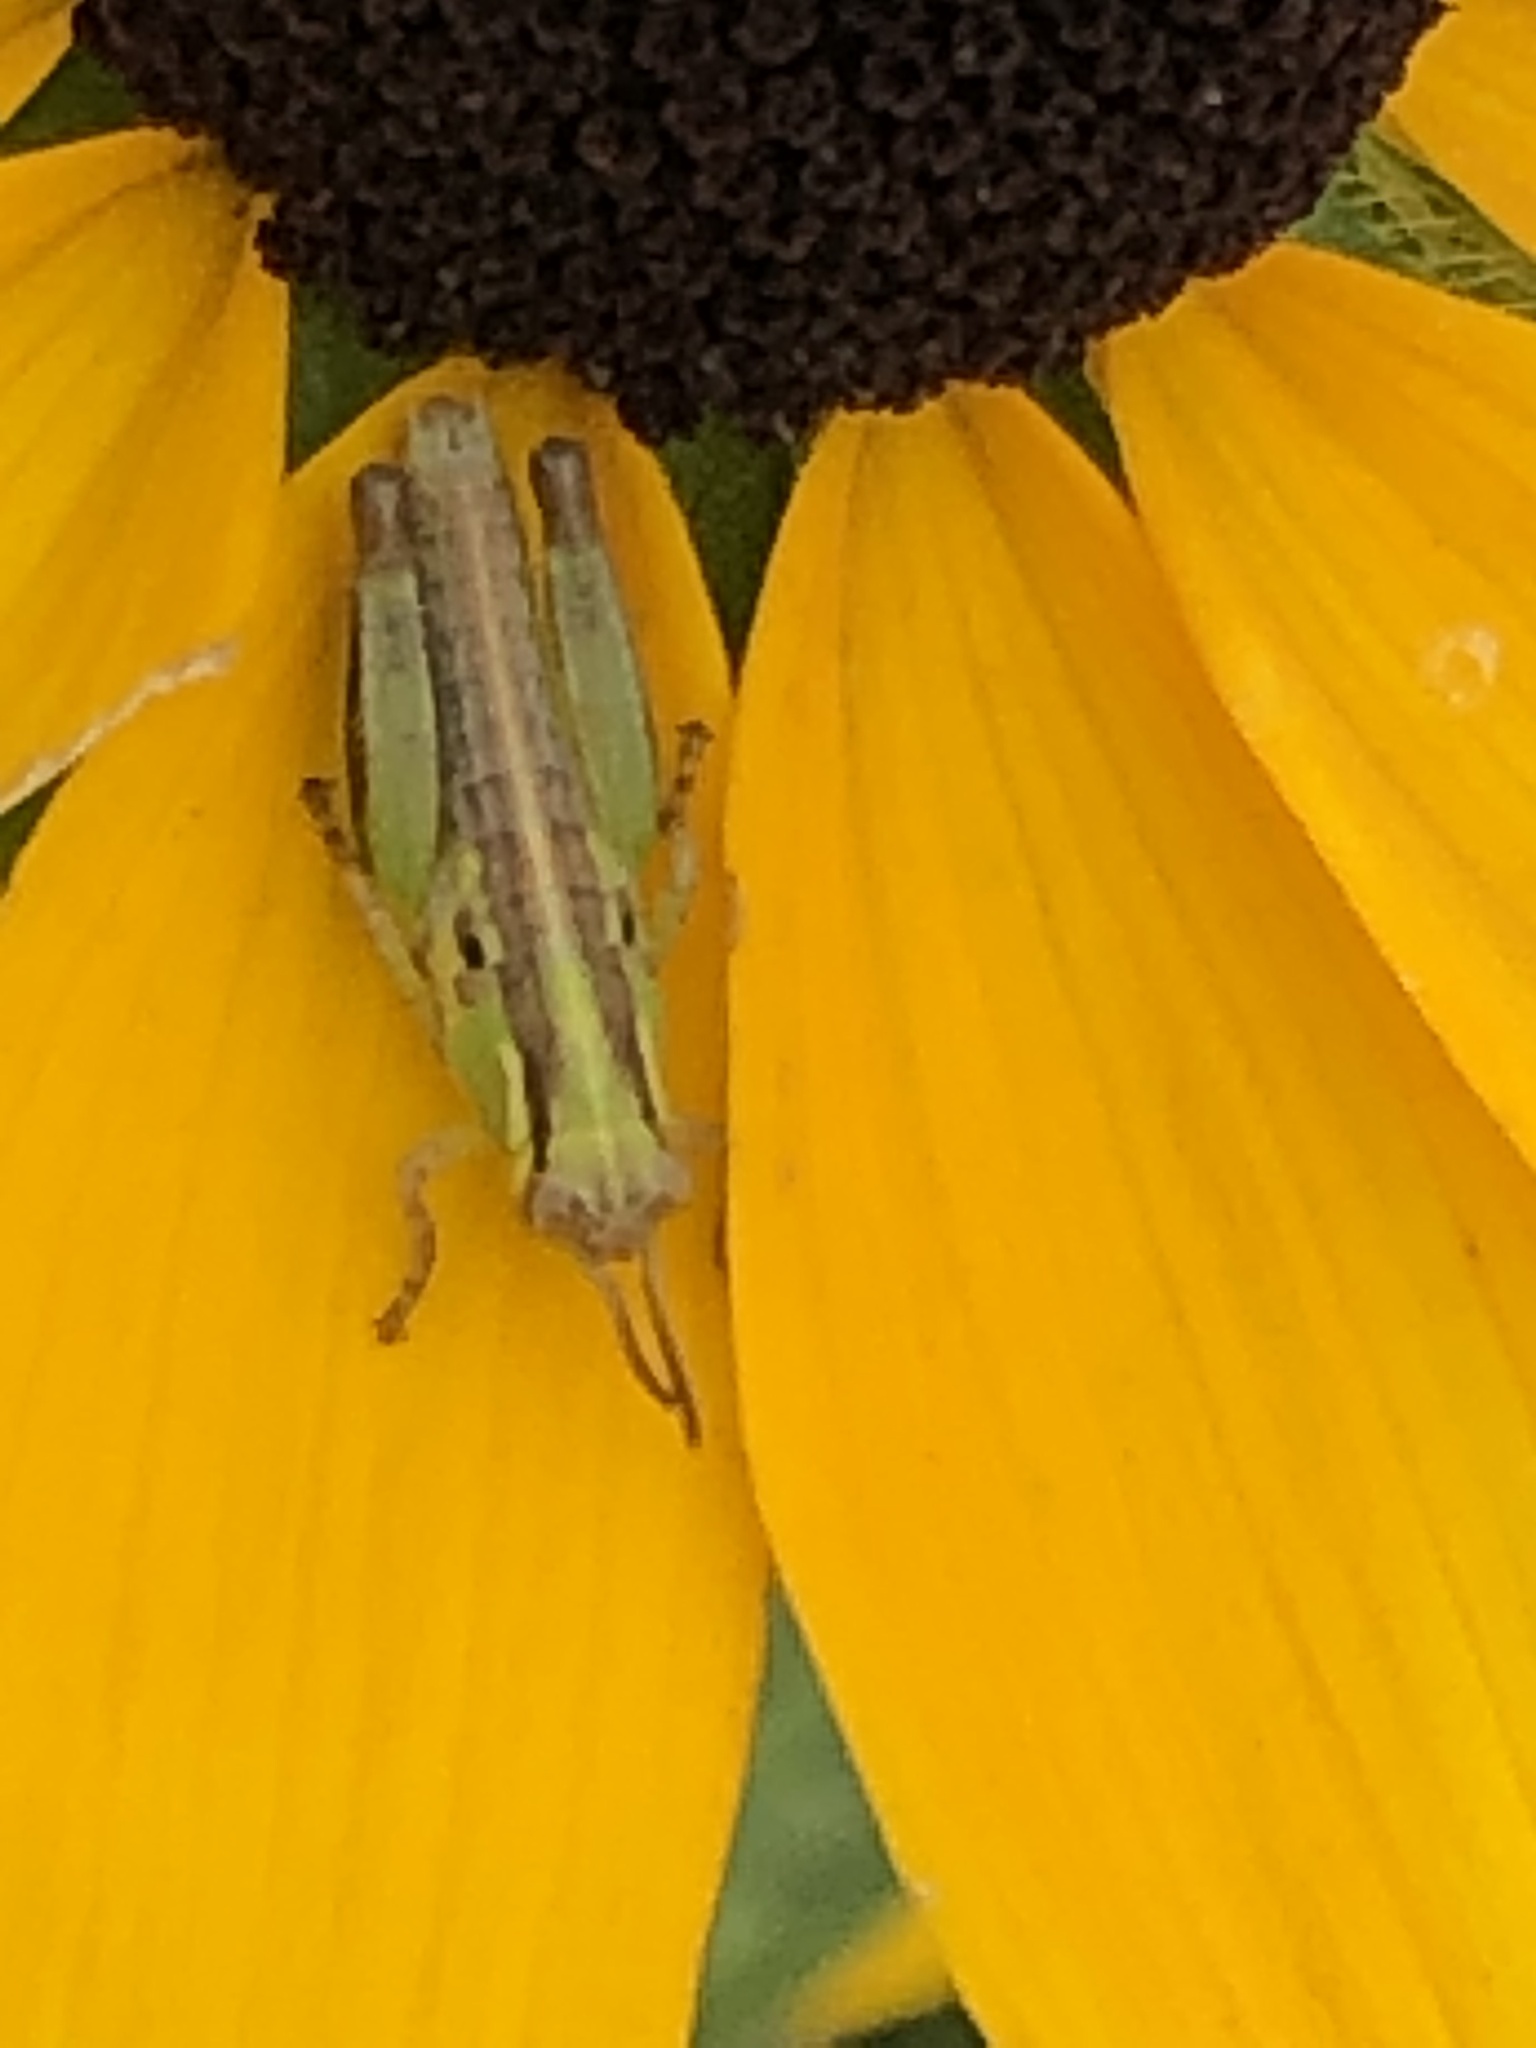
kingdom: Animalia
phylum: Arthropoda
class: Insecta
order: Orthoptera
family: Acrididae
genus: Melanoplus
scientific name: Melanoplus bivittatus
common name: Two-striped grasshopper
